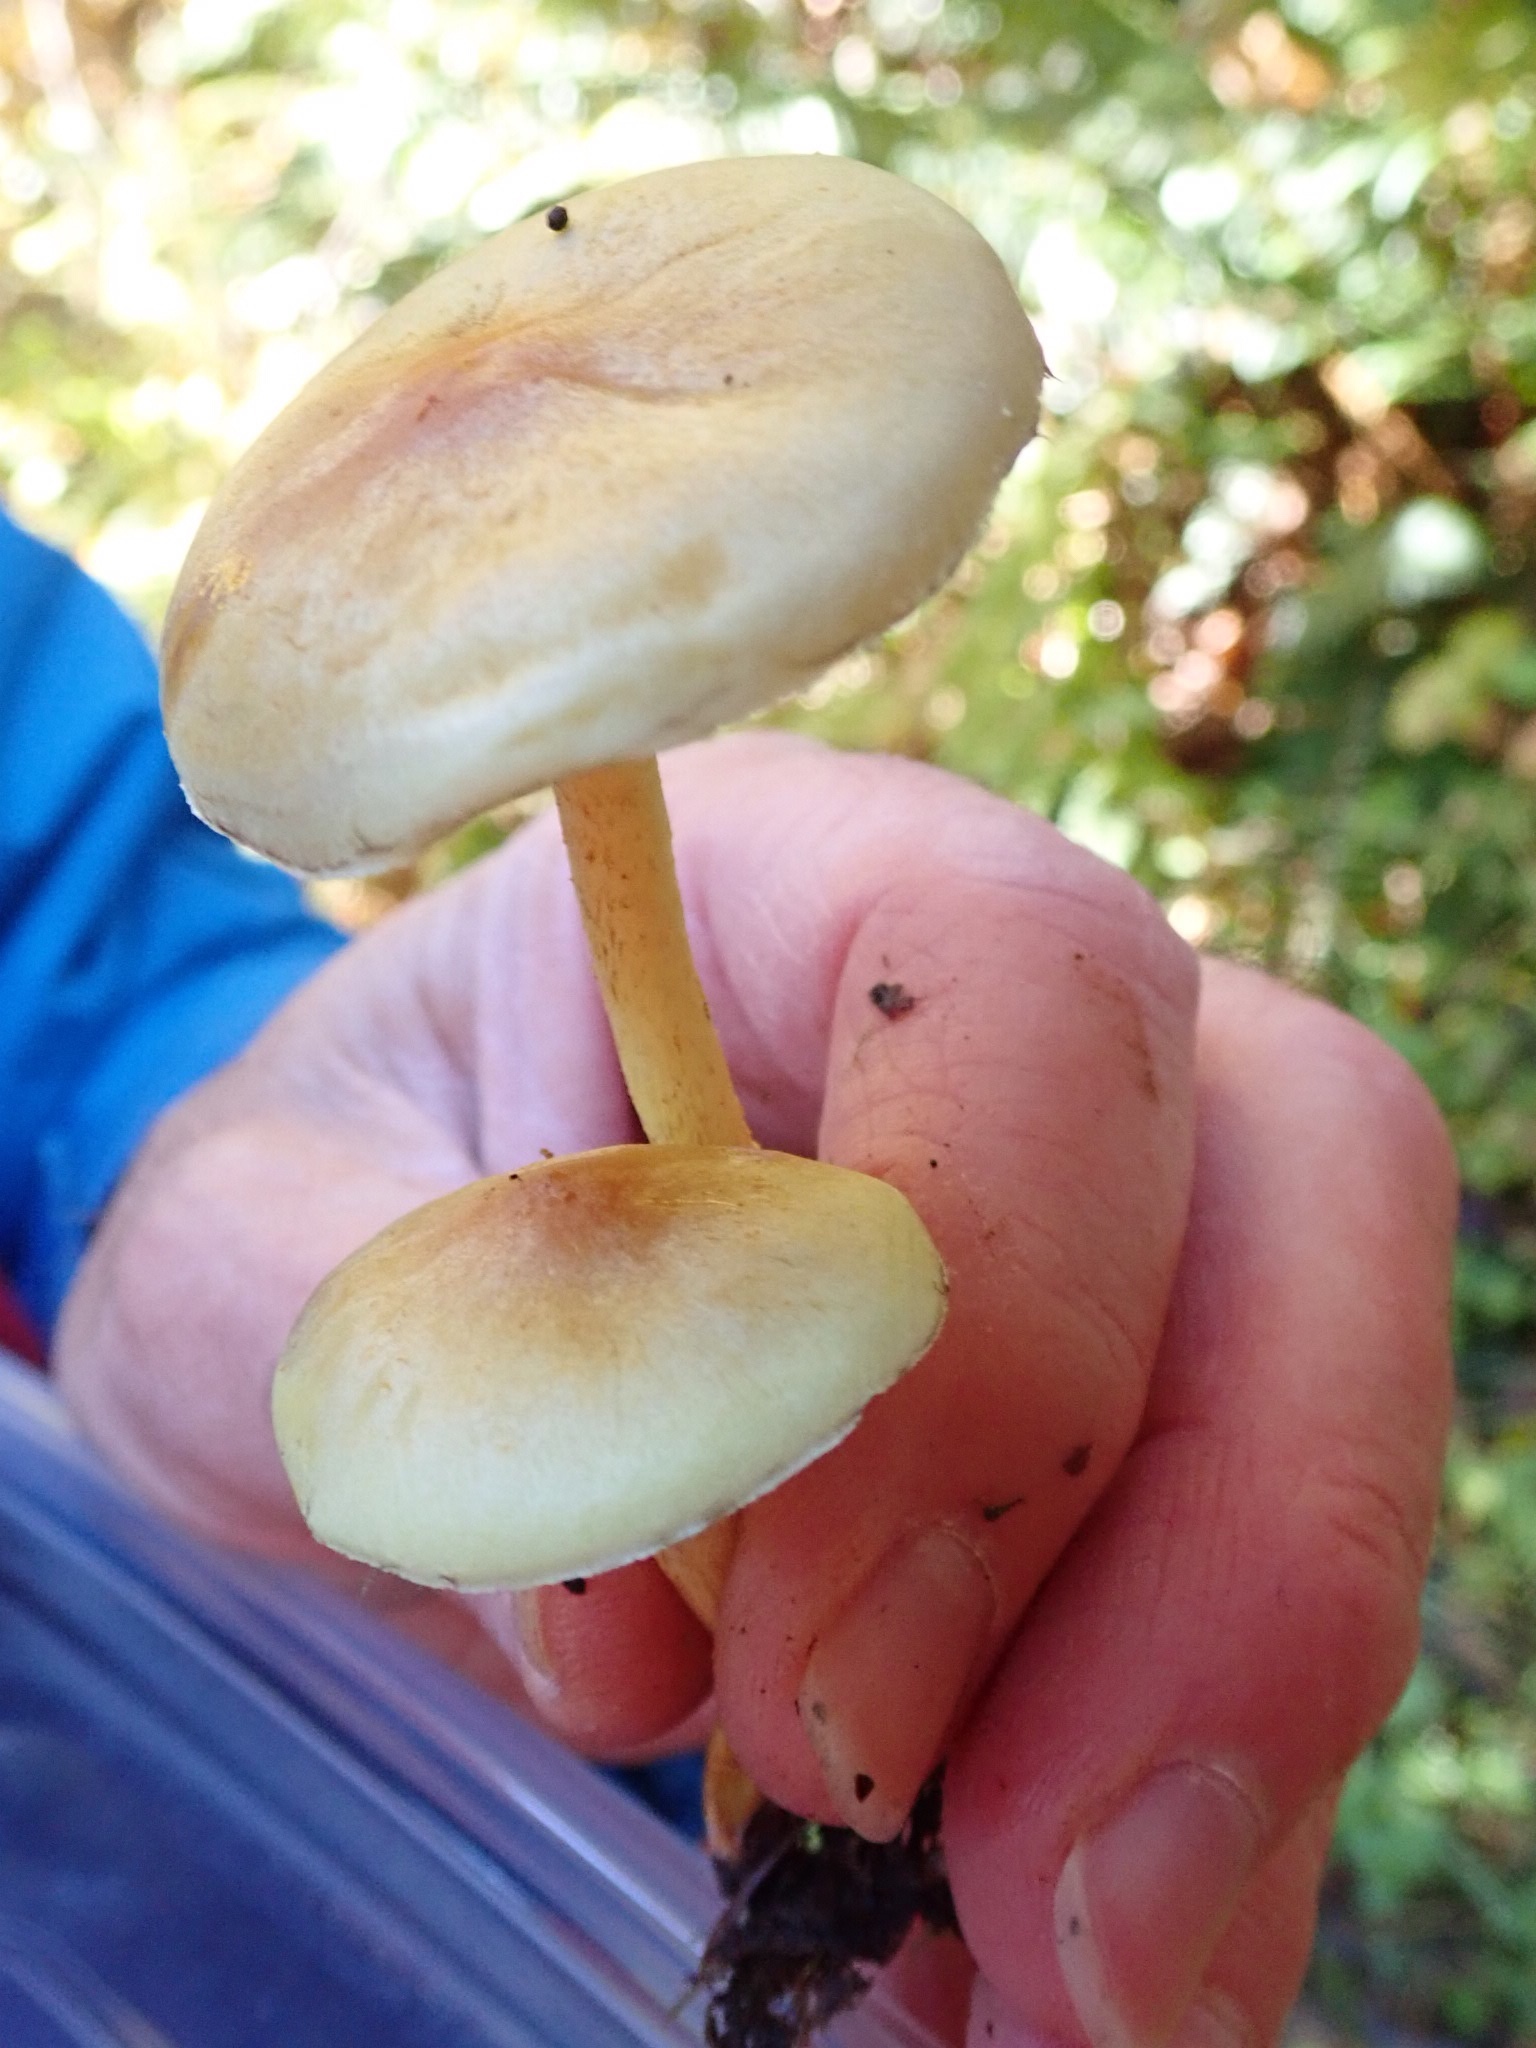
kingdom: Fungi
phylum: Basidiomycota
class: Agaricomycetes
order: Agaricales
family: Strophariaceae
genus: Hypholoma
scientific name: Hypholoma capnoides
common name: Conifer tuft
